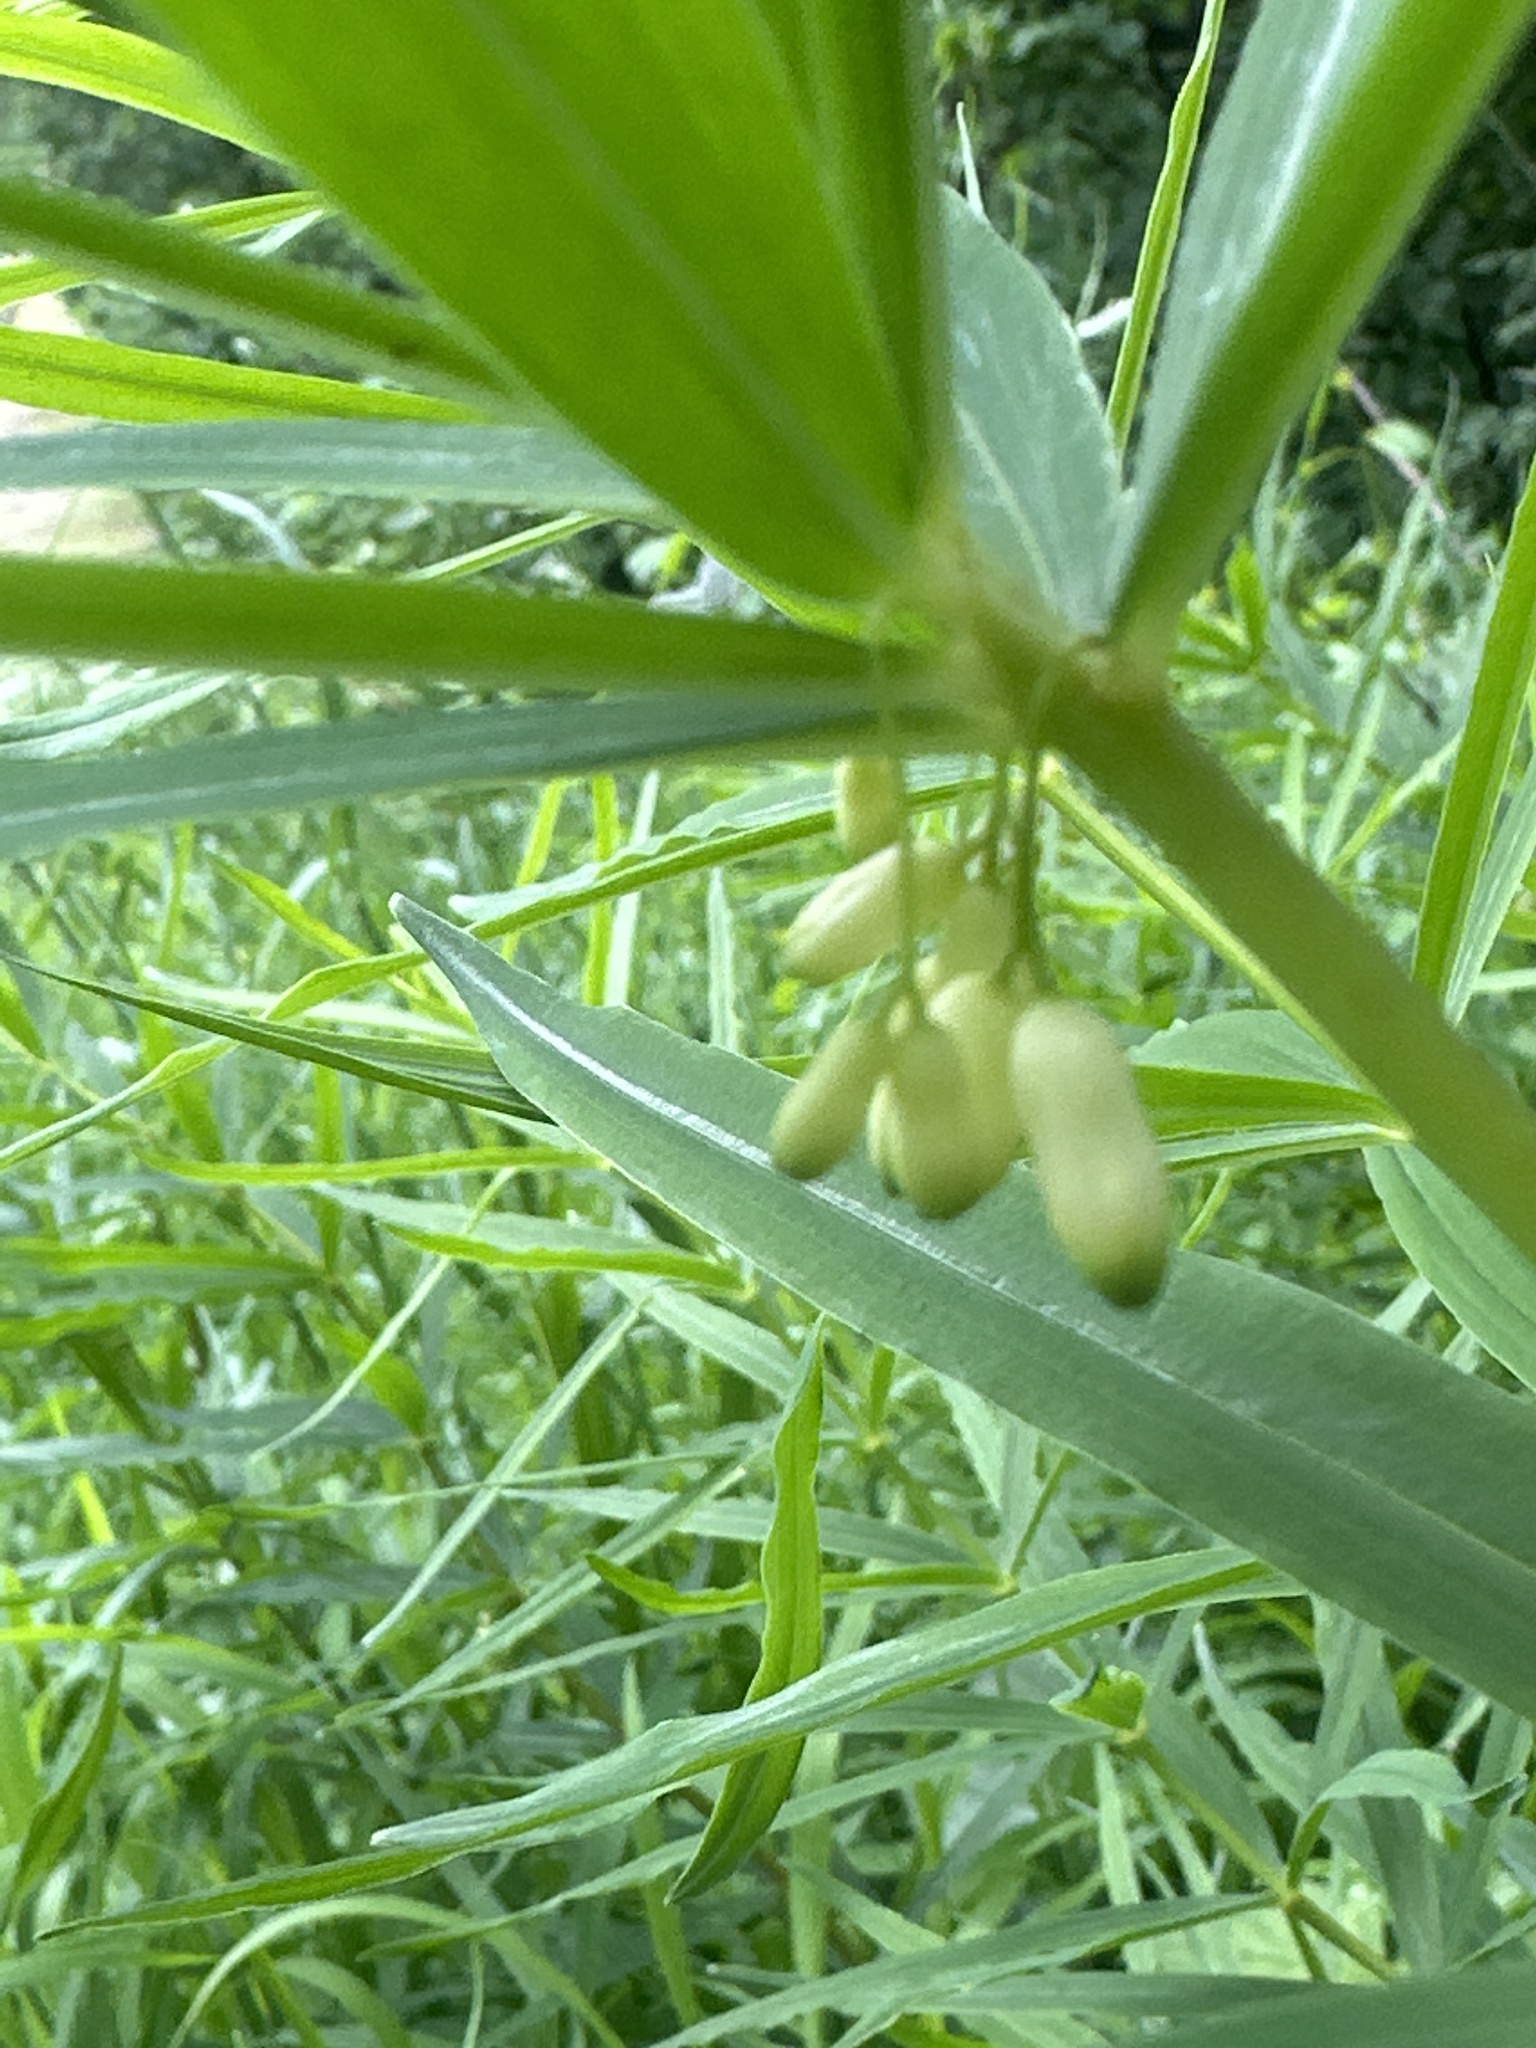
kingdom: Plantae
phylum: Tracheophyta
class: Liliopsida
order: Asparagales
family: Asparagaceae
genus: Polygonatum
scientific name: Polygonatum verticillatum
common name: Whorled solomon's-seal
